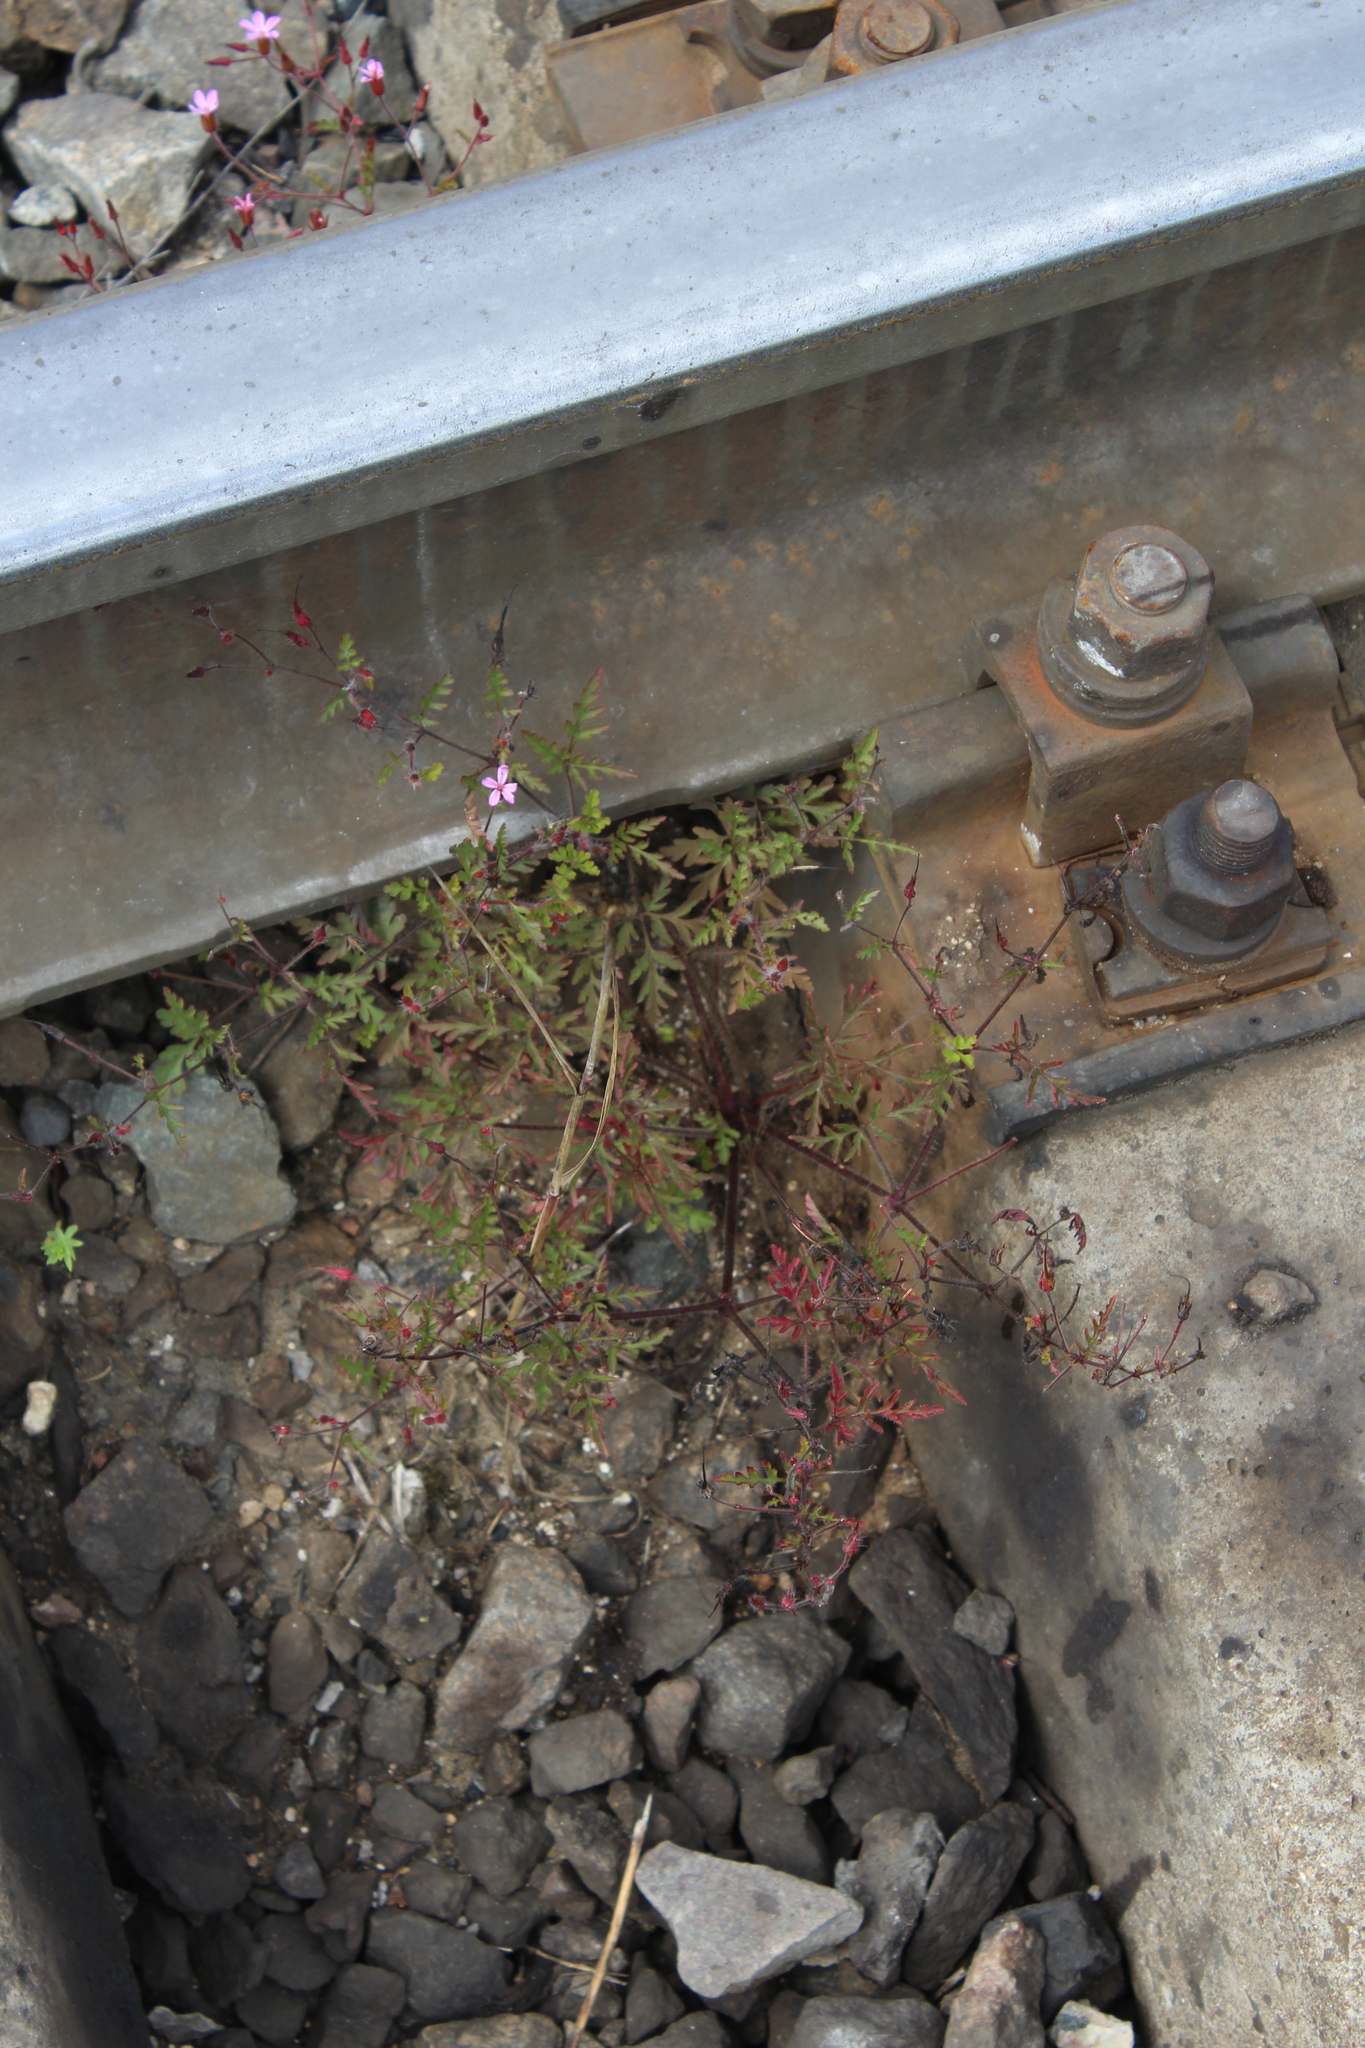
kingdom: Plantae
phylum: Tracheophyta
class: Magnoliopsida
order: Geraniales
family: Geraniaceae
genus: Geranium
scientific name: Geranium robertianum
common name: Herb-robert
